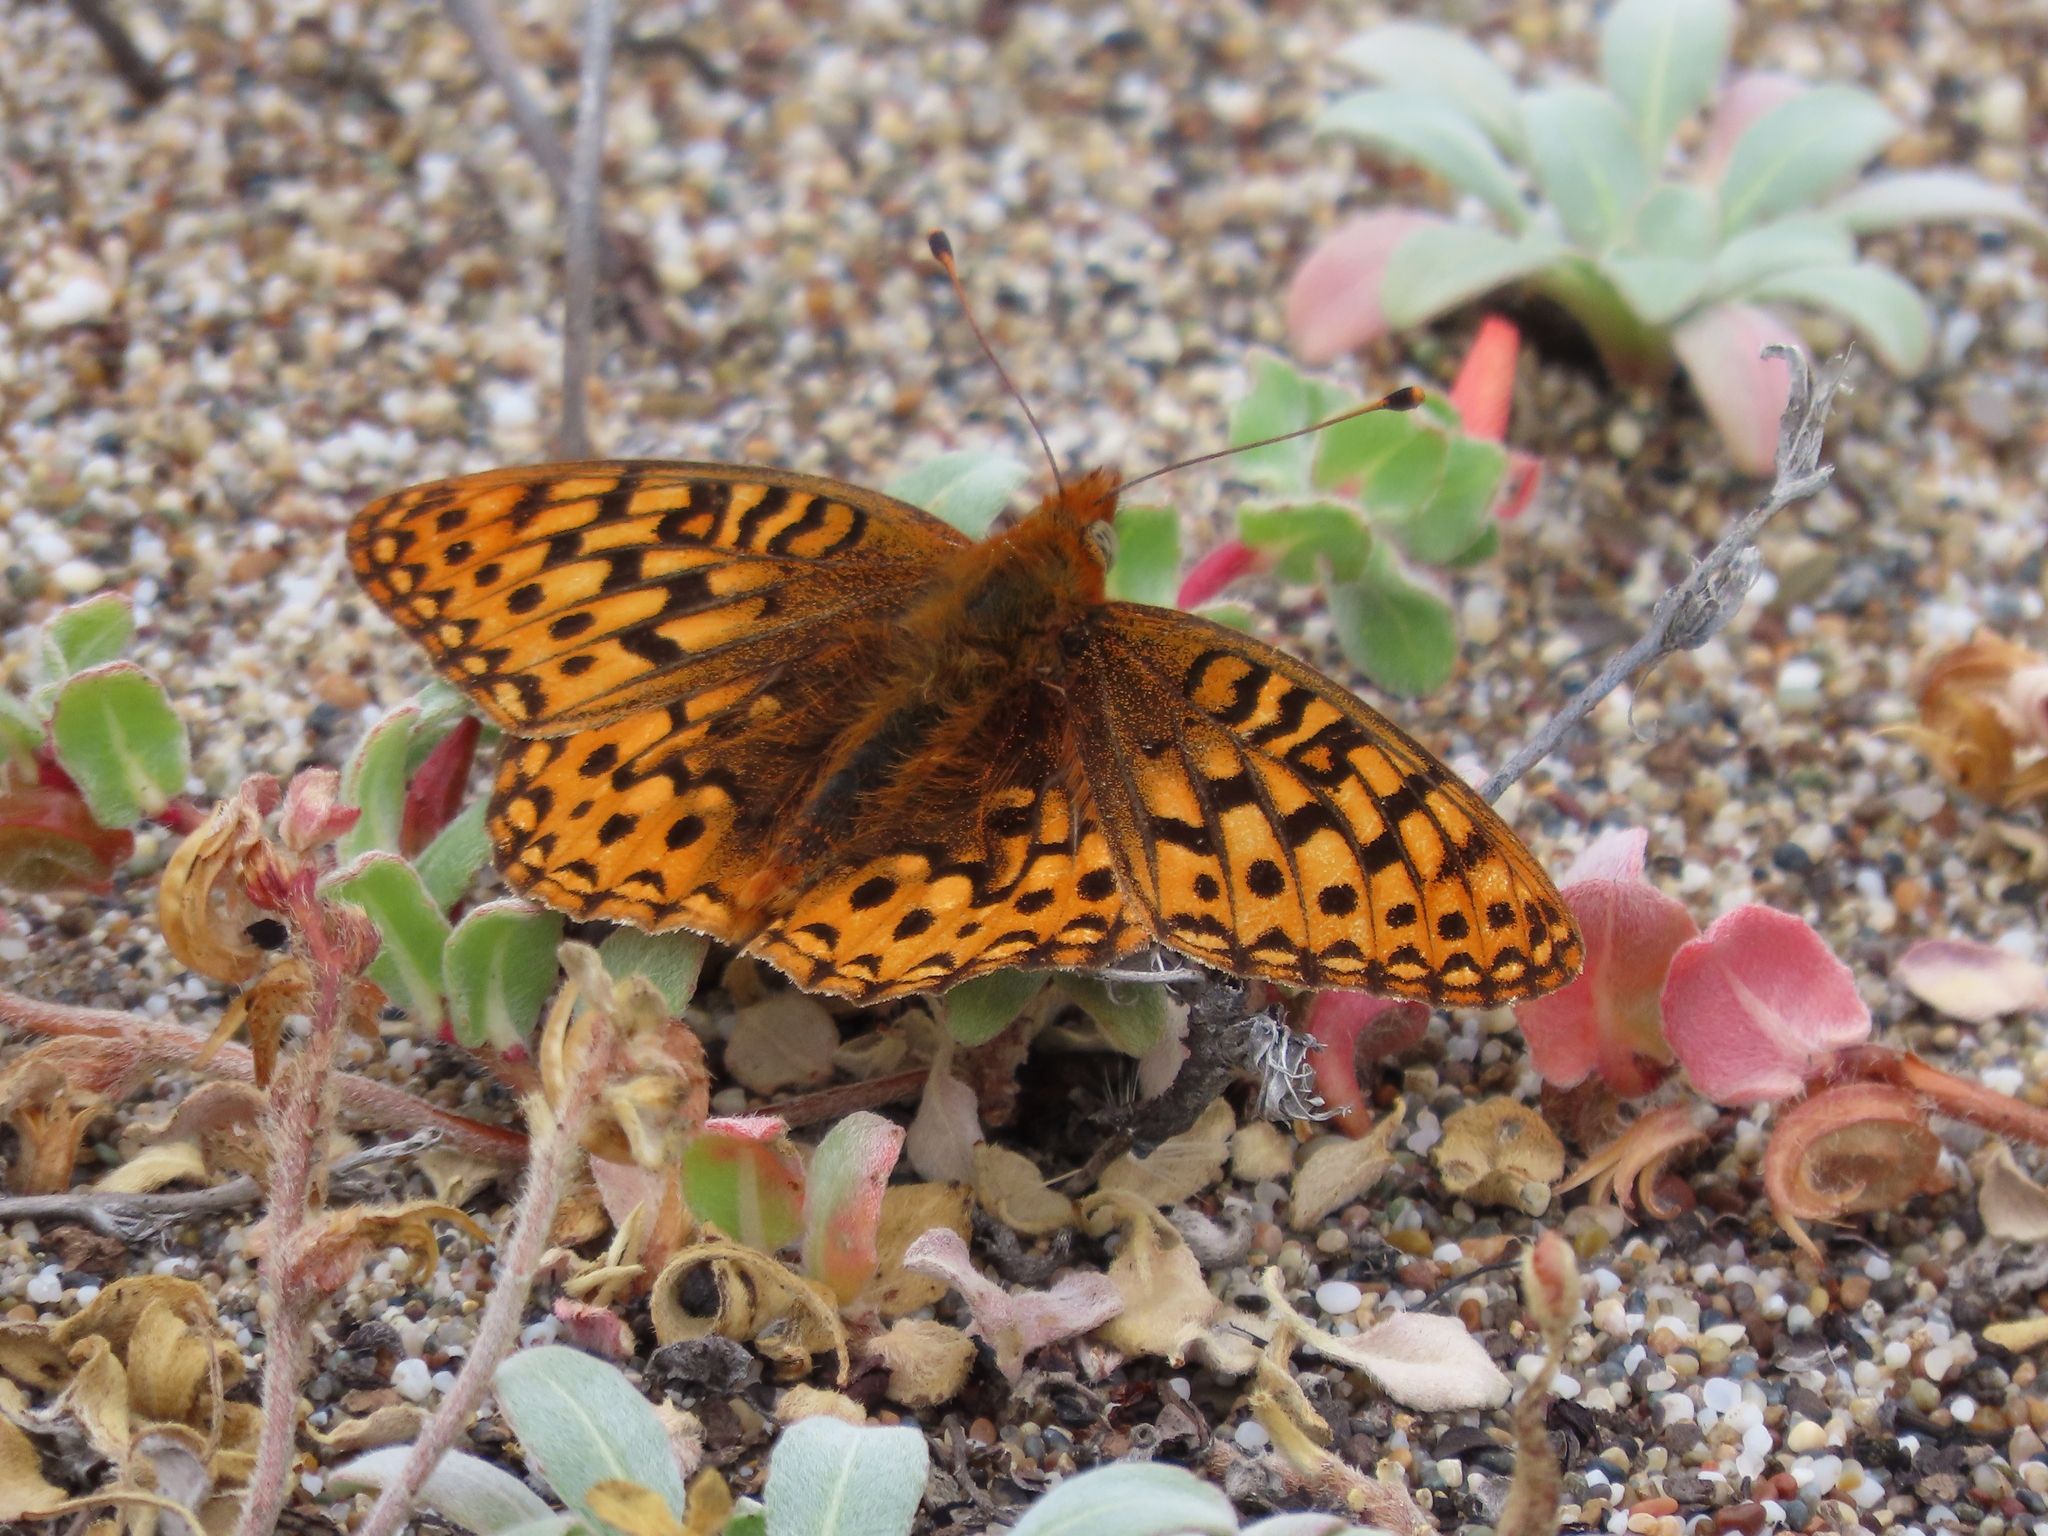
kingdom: Animalia
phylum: Arthropoda
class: Insecta
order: Lepidoptera
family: Nymphalidae
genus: Speyeria
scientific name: Speyeria zerene
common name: Zerene fritillary
